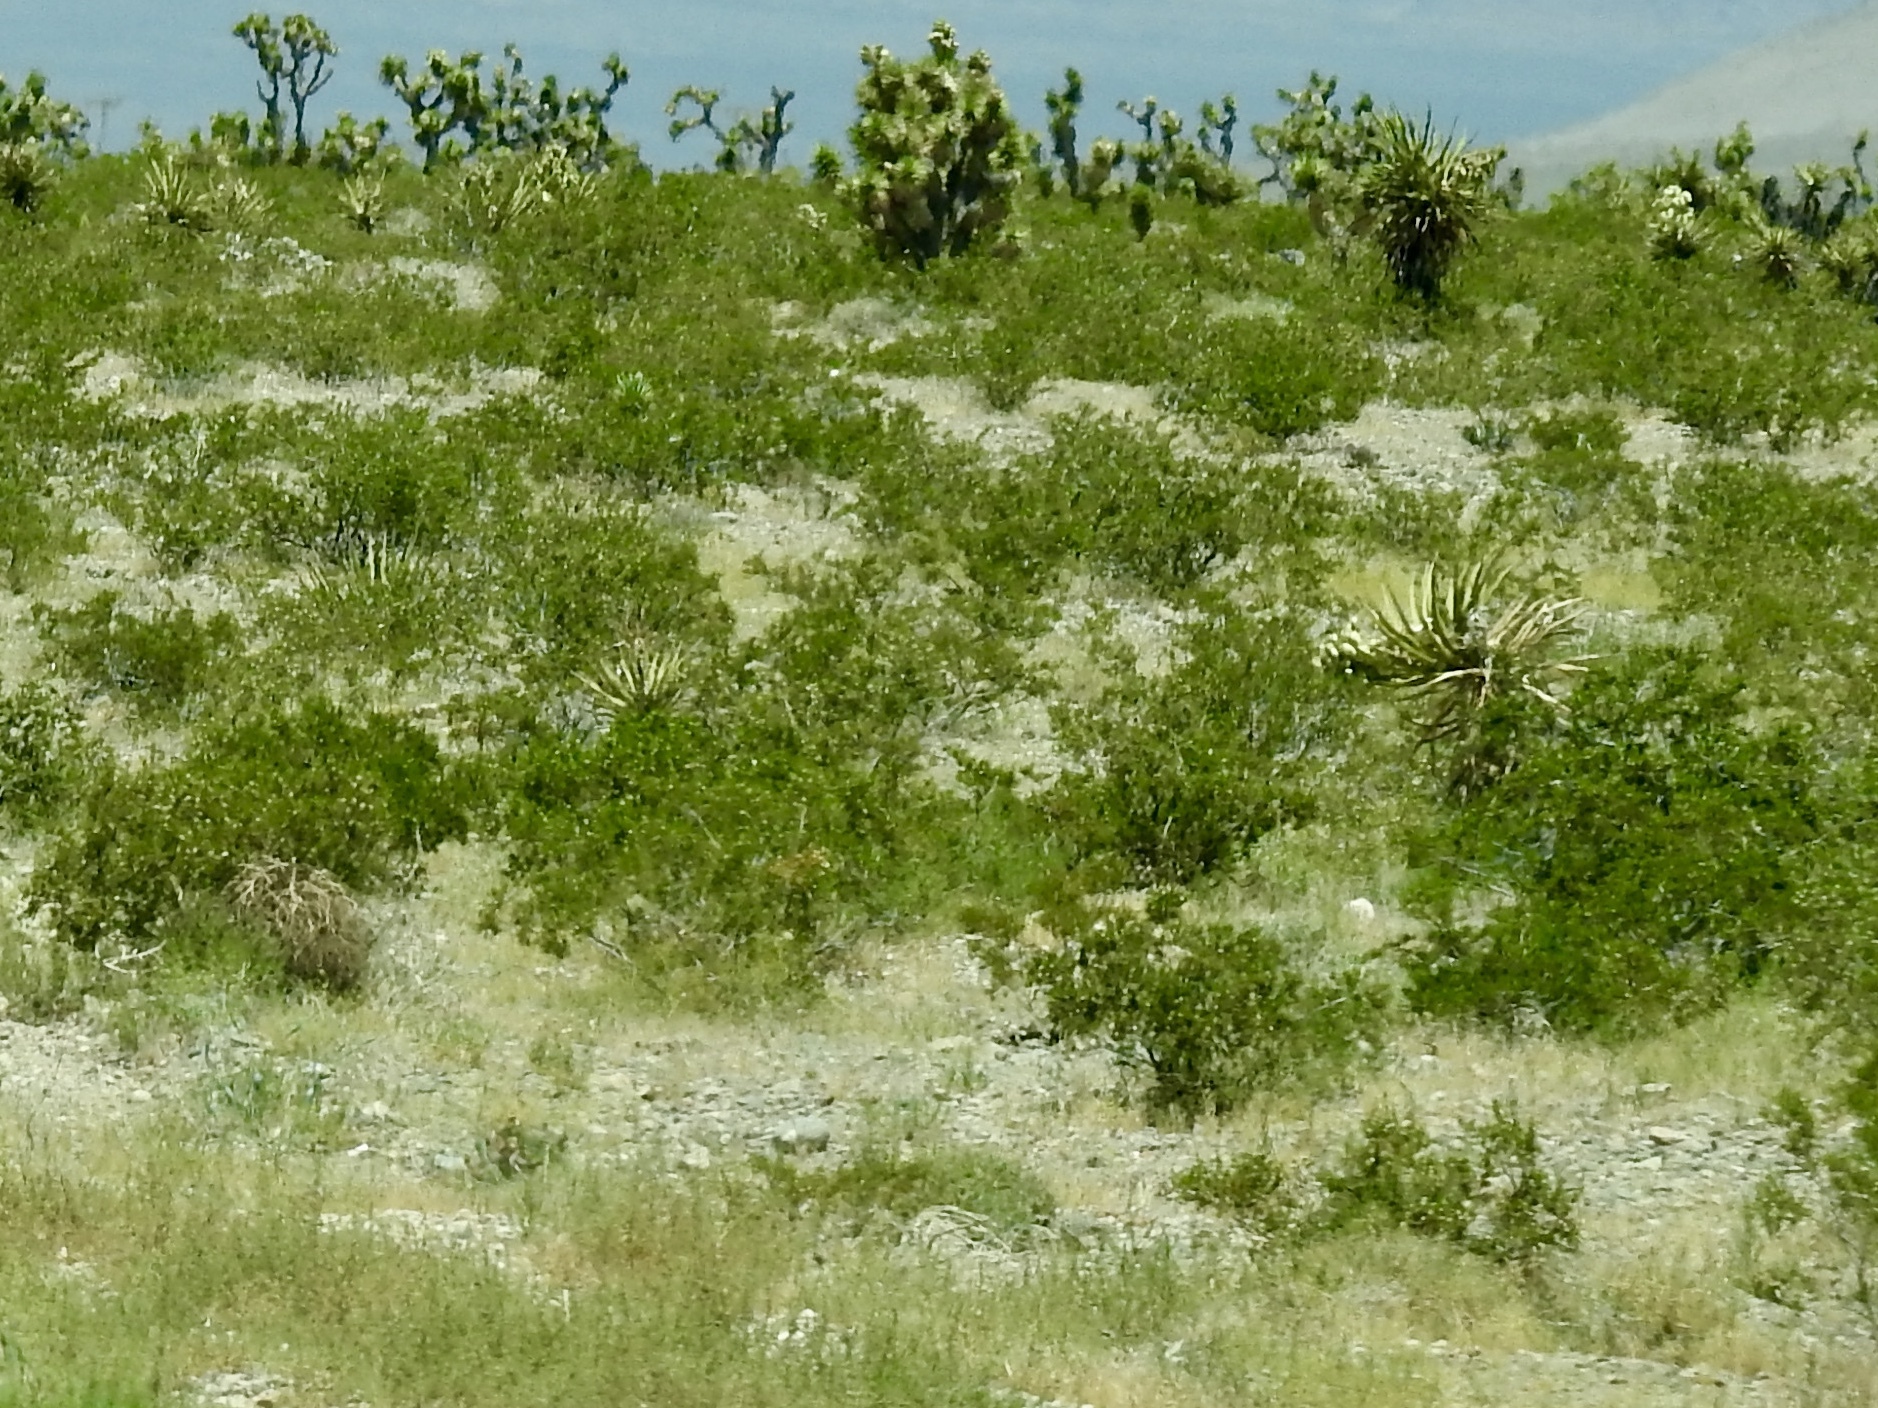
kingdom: Plantae
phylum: Tracheophyta
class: Magnoliopsida
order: Zygophyllales
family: Zygophyllaceae
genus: Larrea
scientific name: Larrea tridentata
